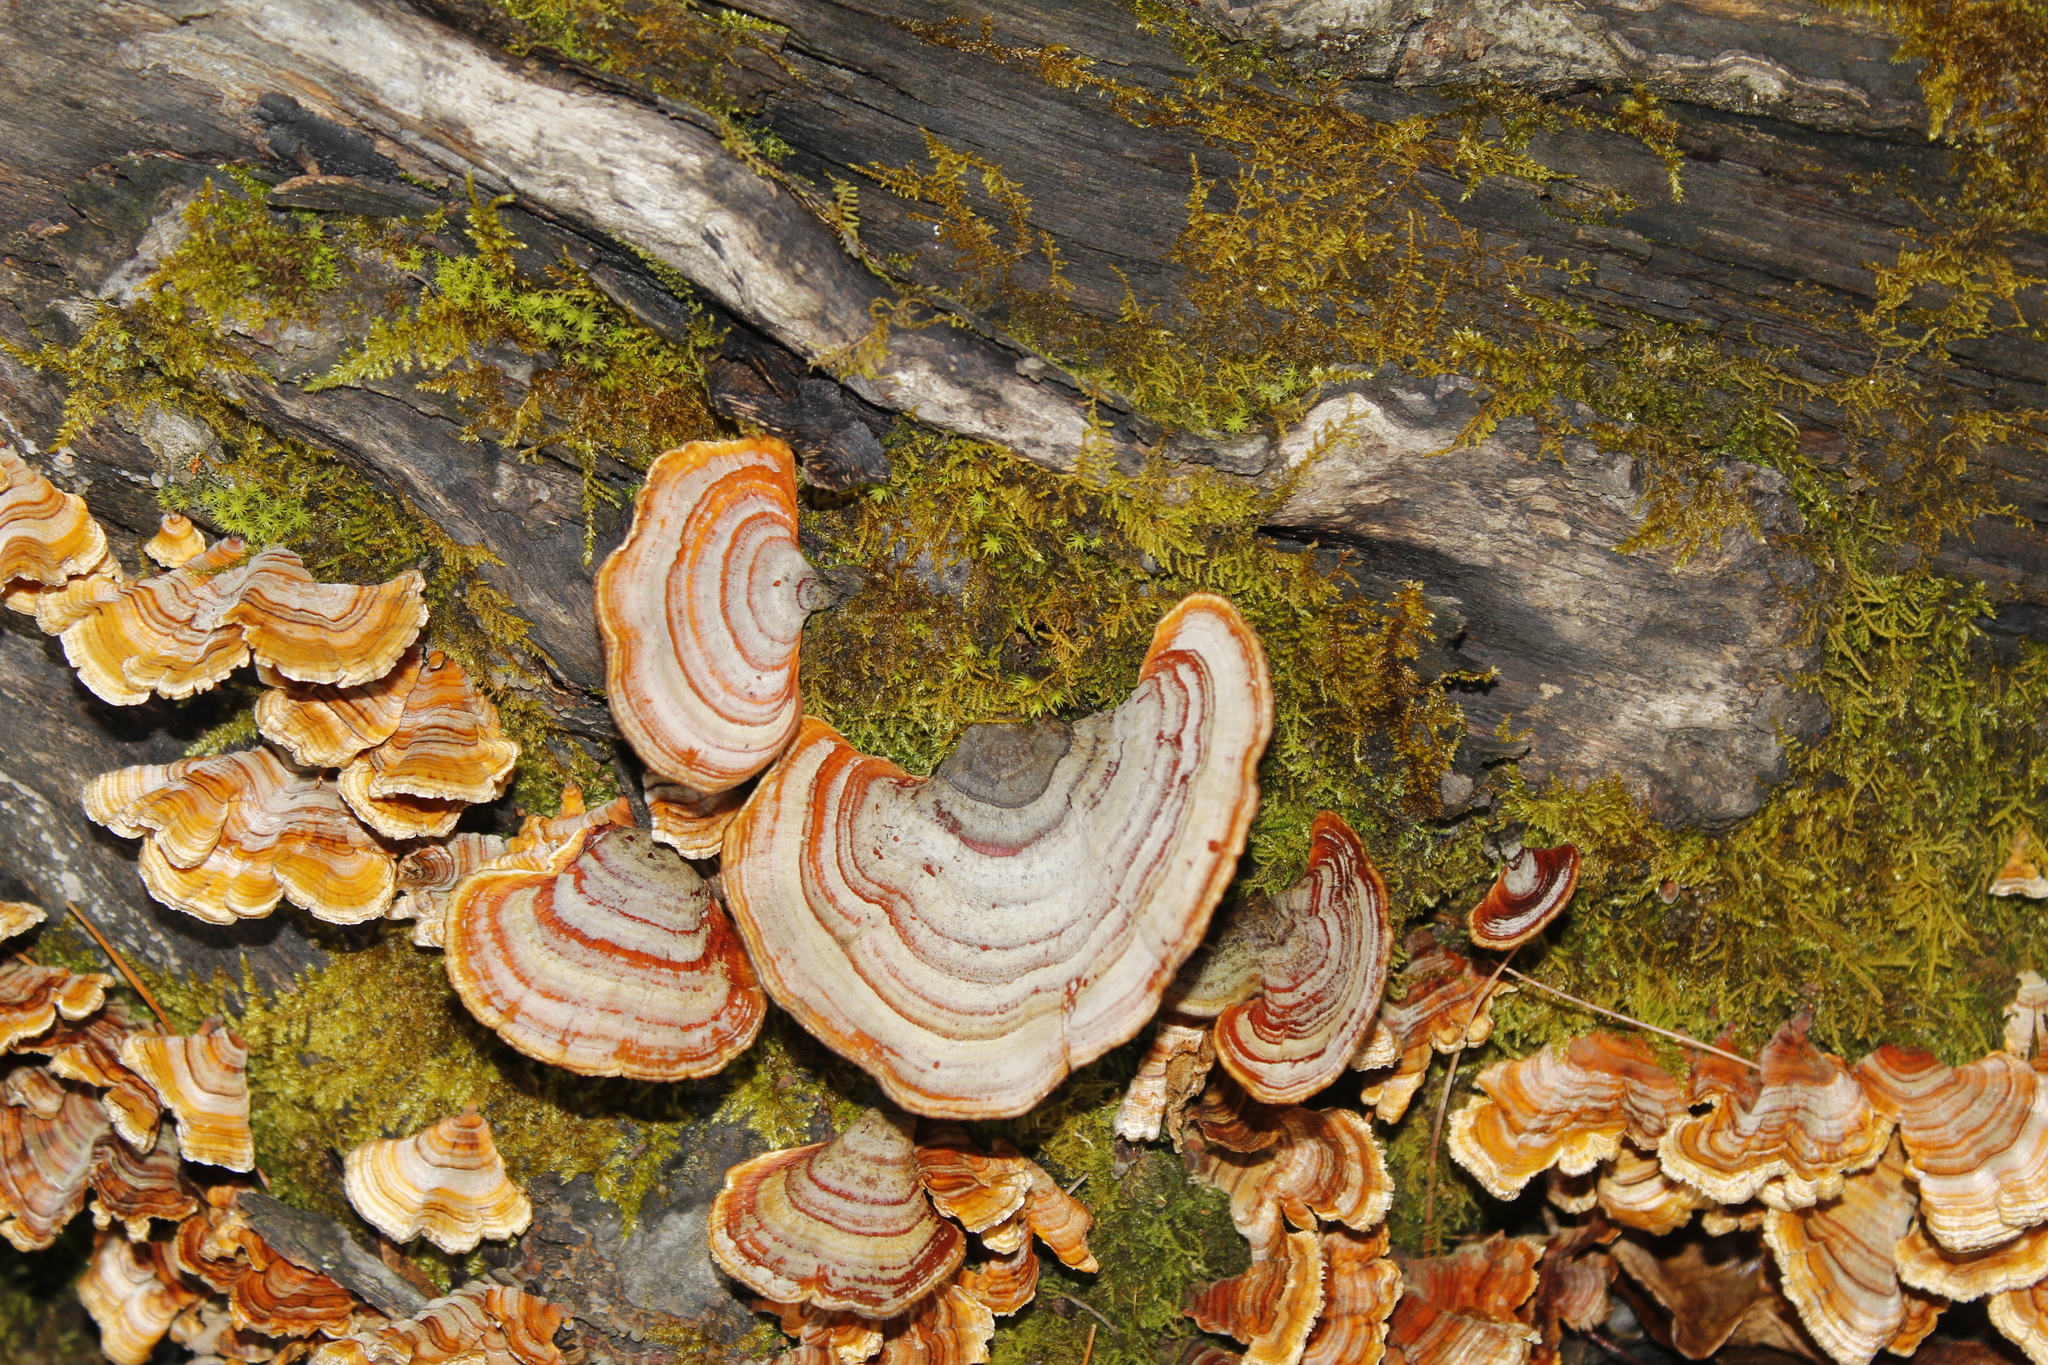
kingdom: Fungi
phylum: Basidiomycota
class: Agaricomycetes
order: Russulales
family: Stereaceae
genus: Stereum
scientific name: Stereum lobatum
